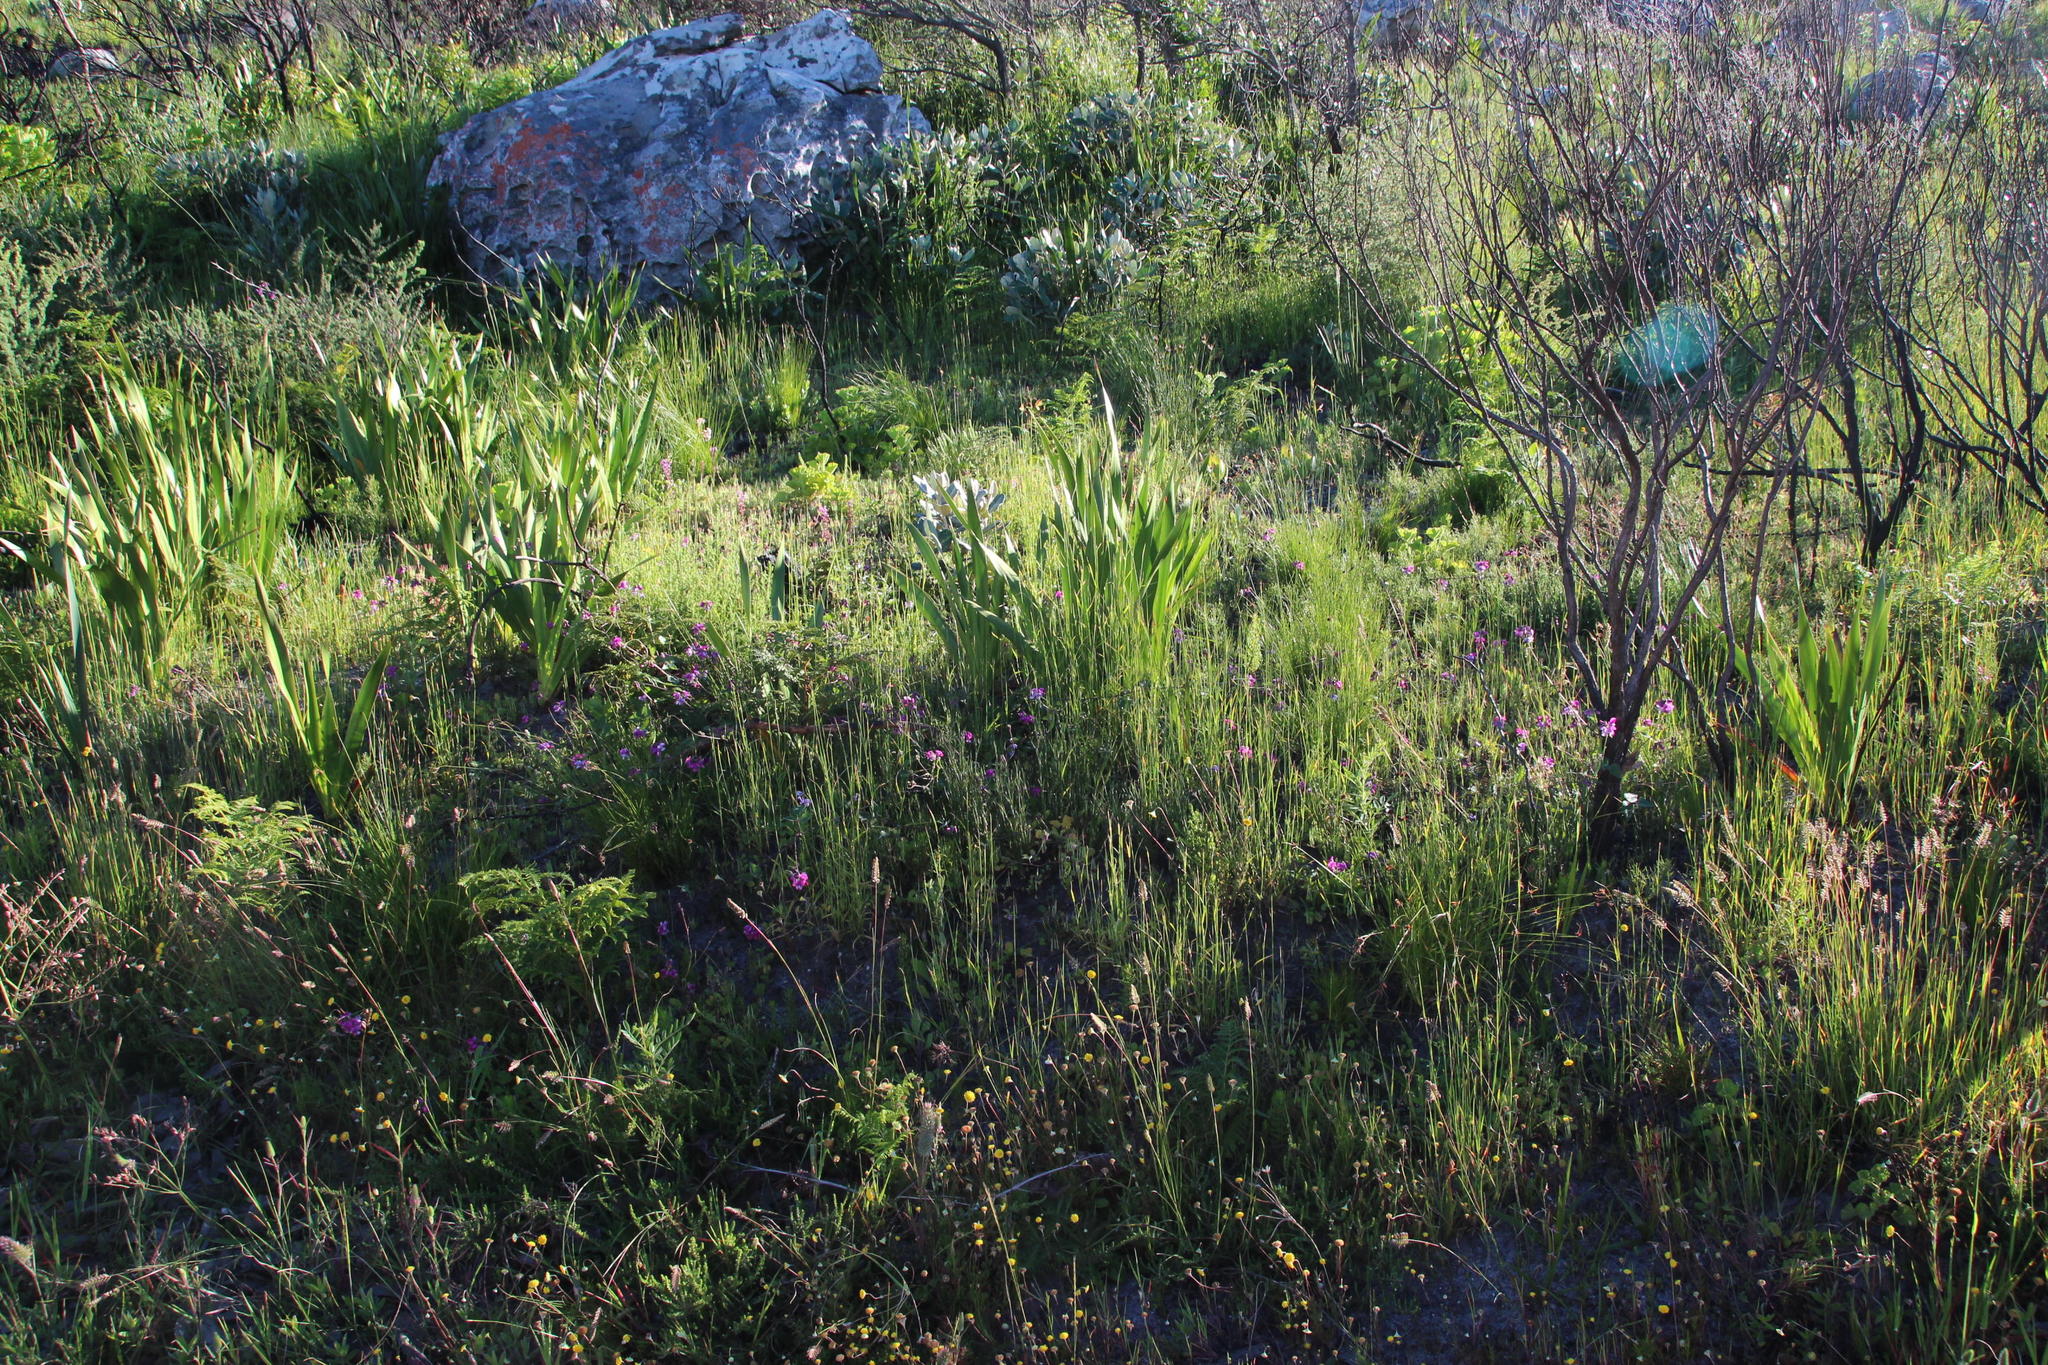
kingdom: Plantae
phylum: Tracheophyta
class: Magnoliopsida
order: Fabales
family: Fabaceae
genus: Dipogon
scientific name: Dipogon lignosus
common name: Okie bean
